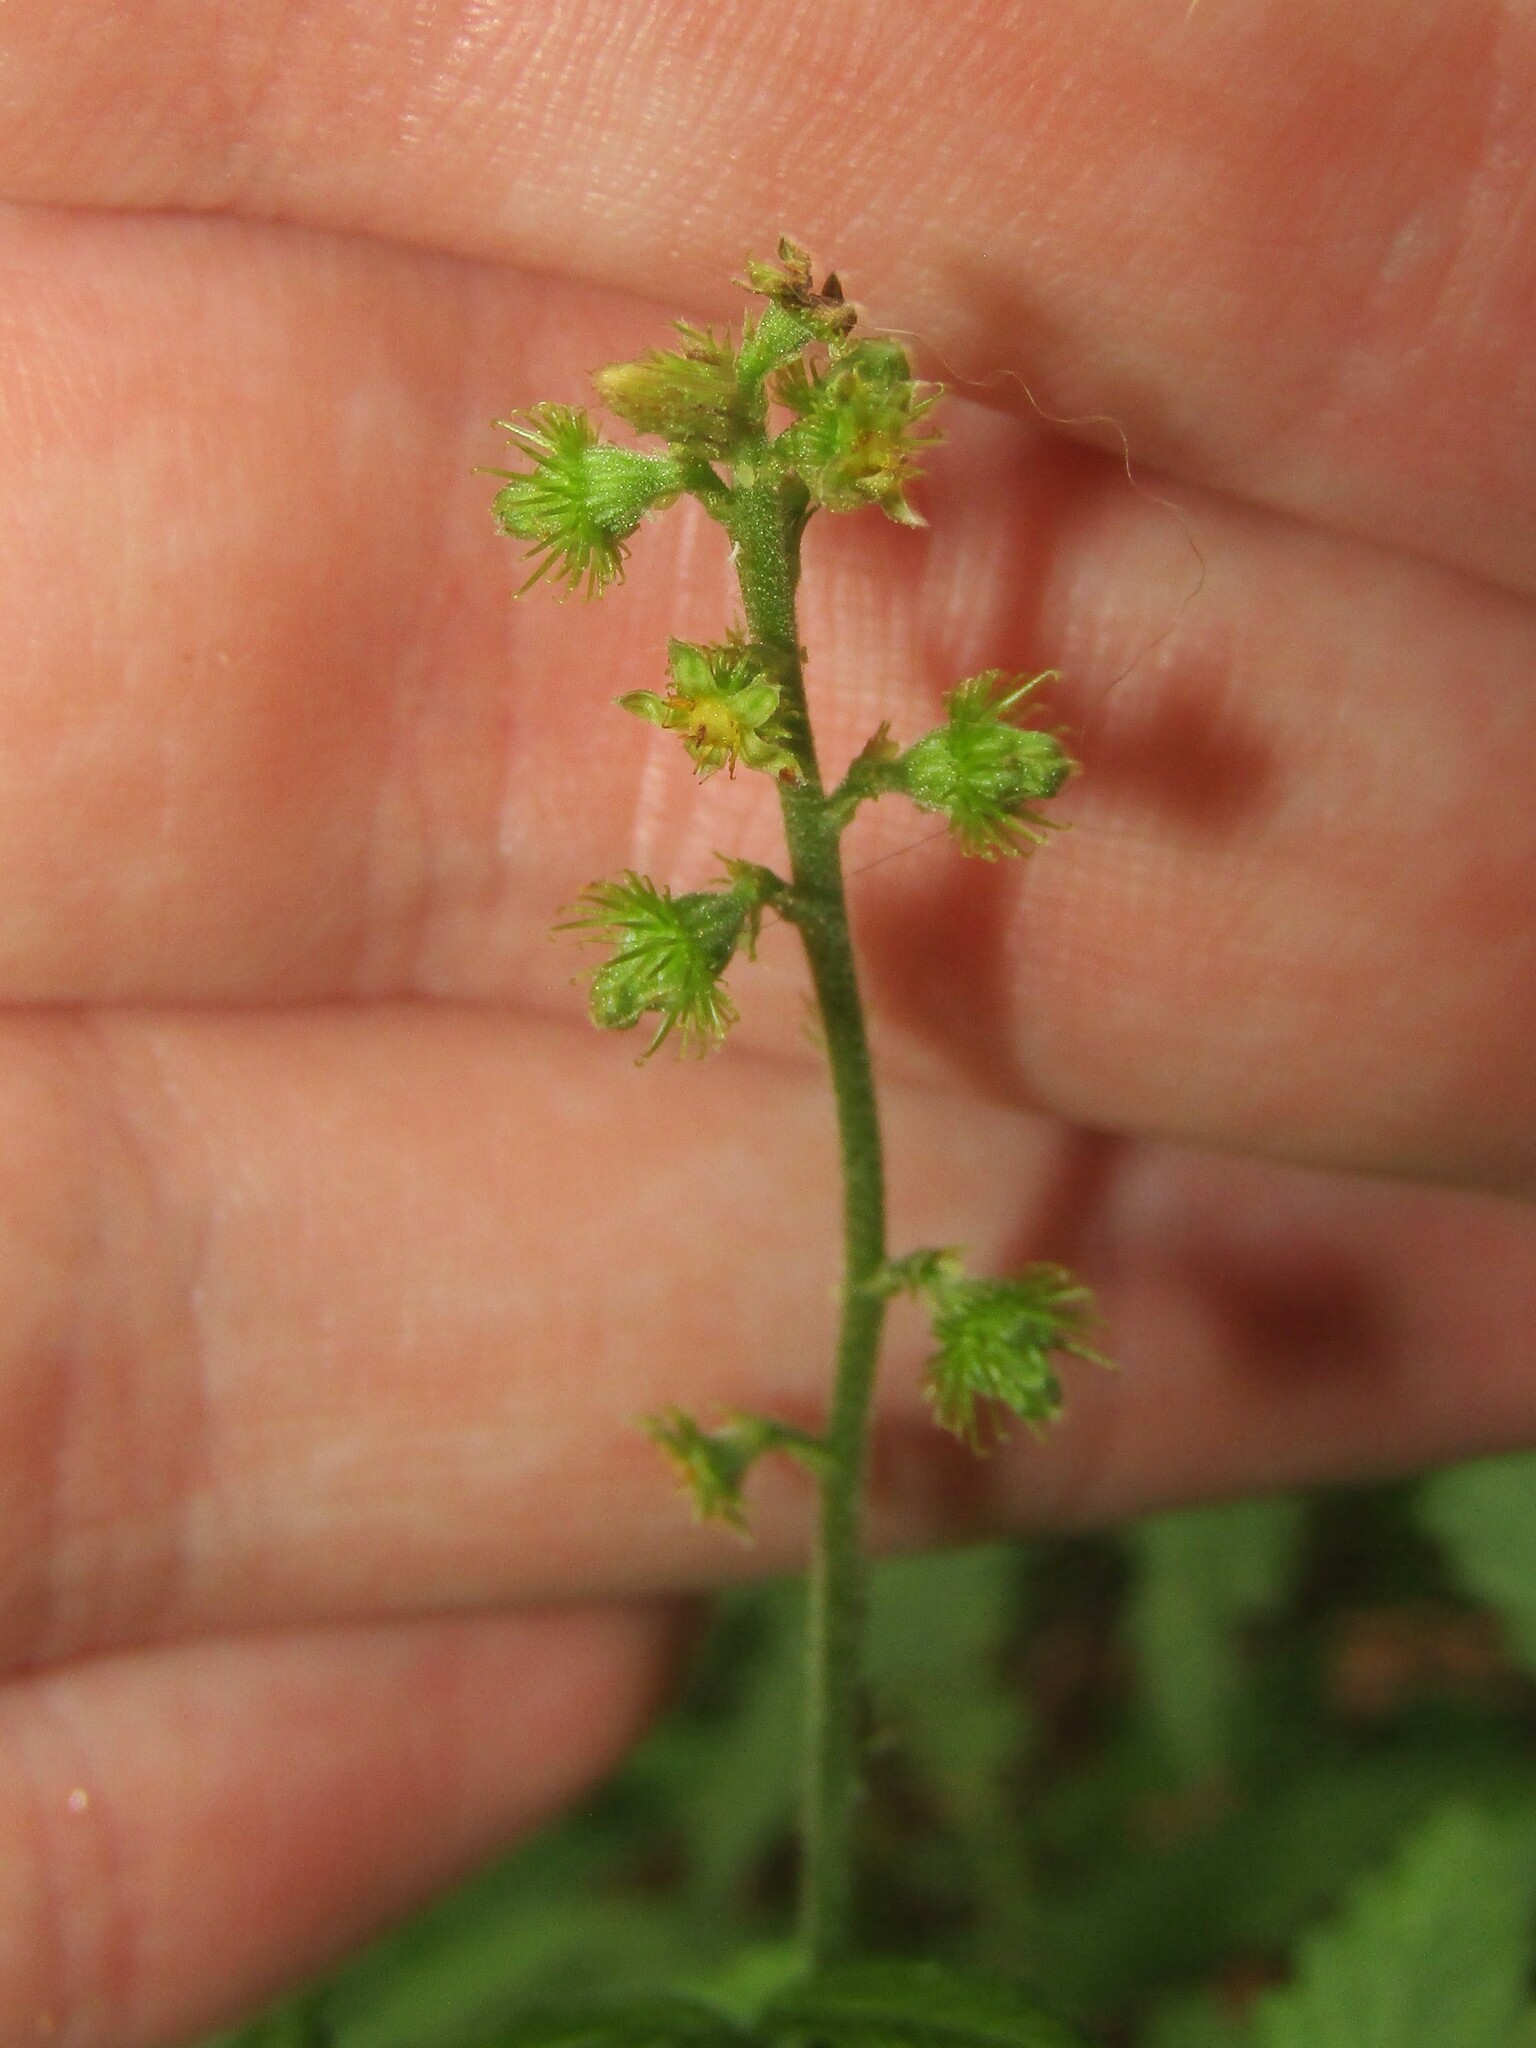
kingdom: Plantae
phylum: Tracheophyta
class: Magnoliopsida
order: Rosales
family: Rosaceae
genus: Agrimonia
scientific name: Agrimonia parviflora
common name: Harvest-lice
